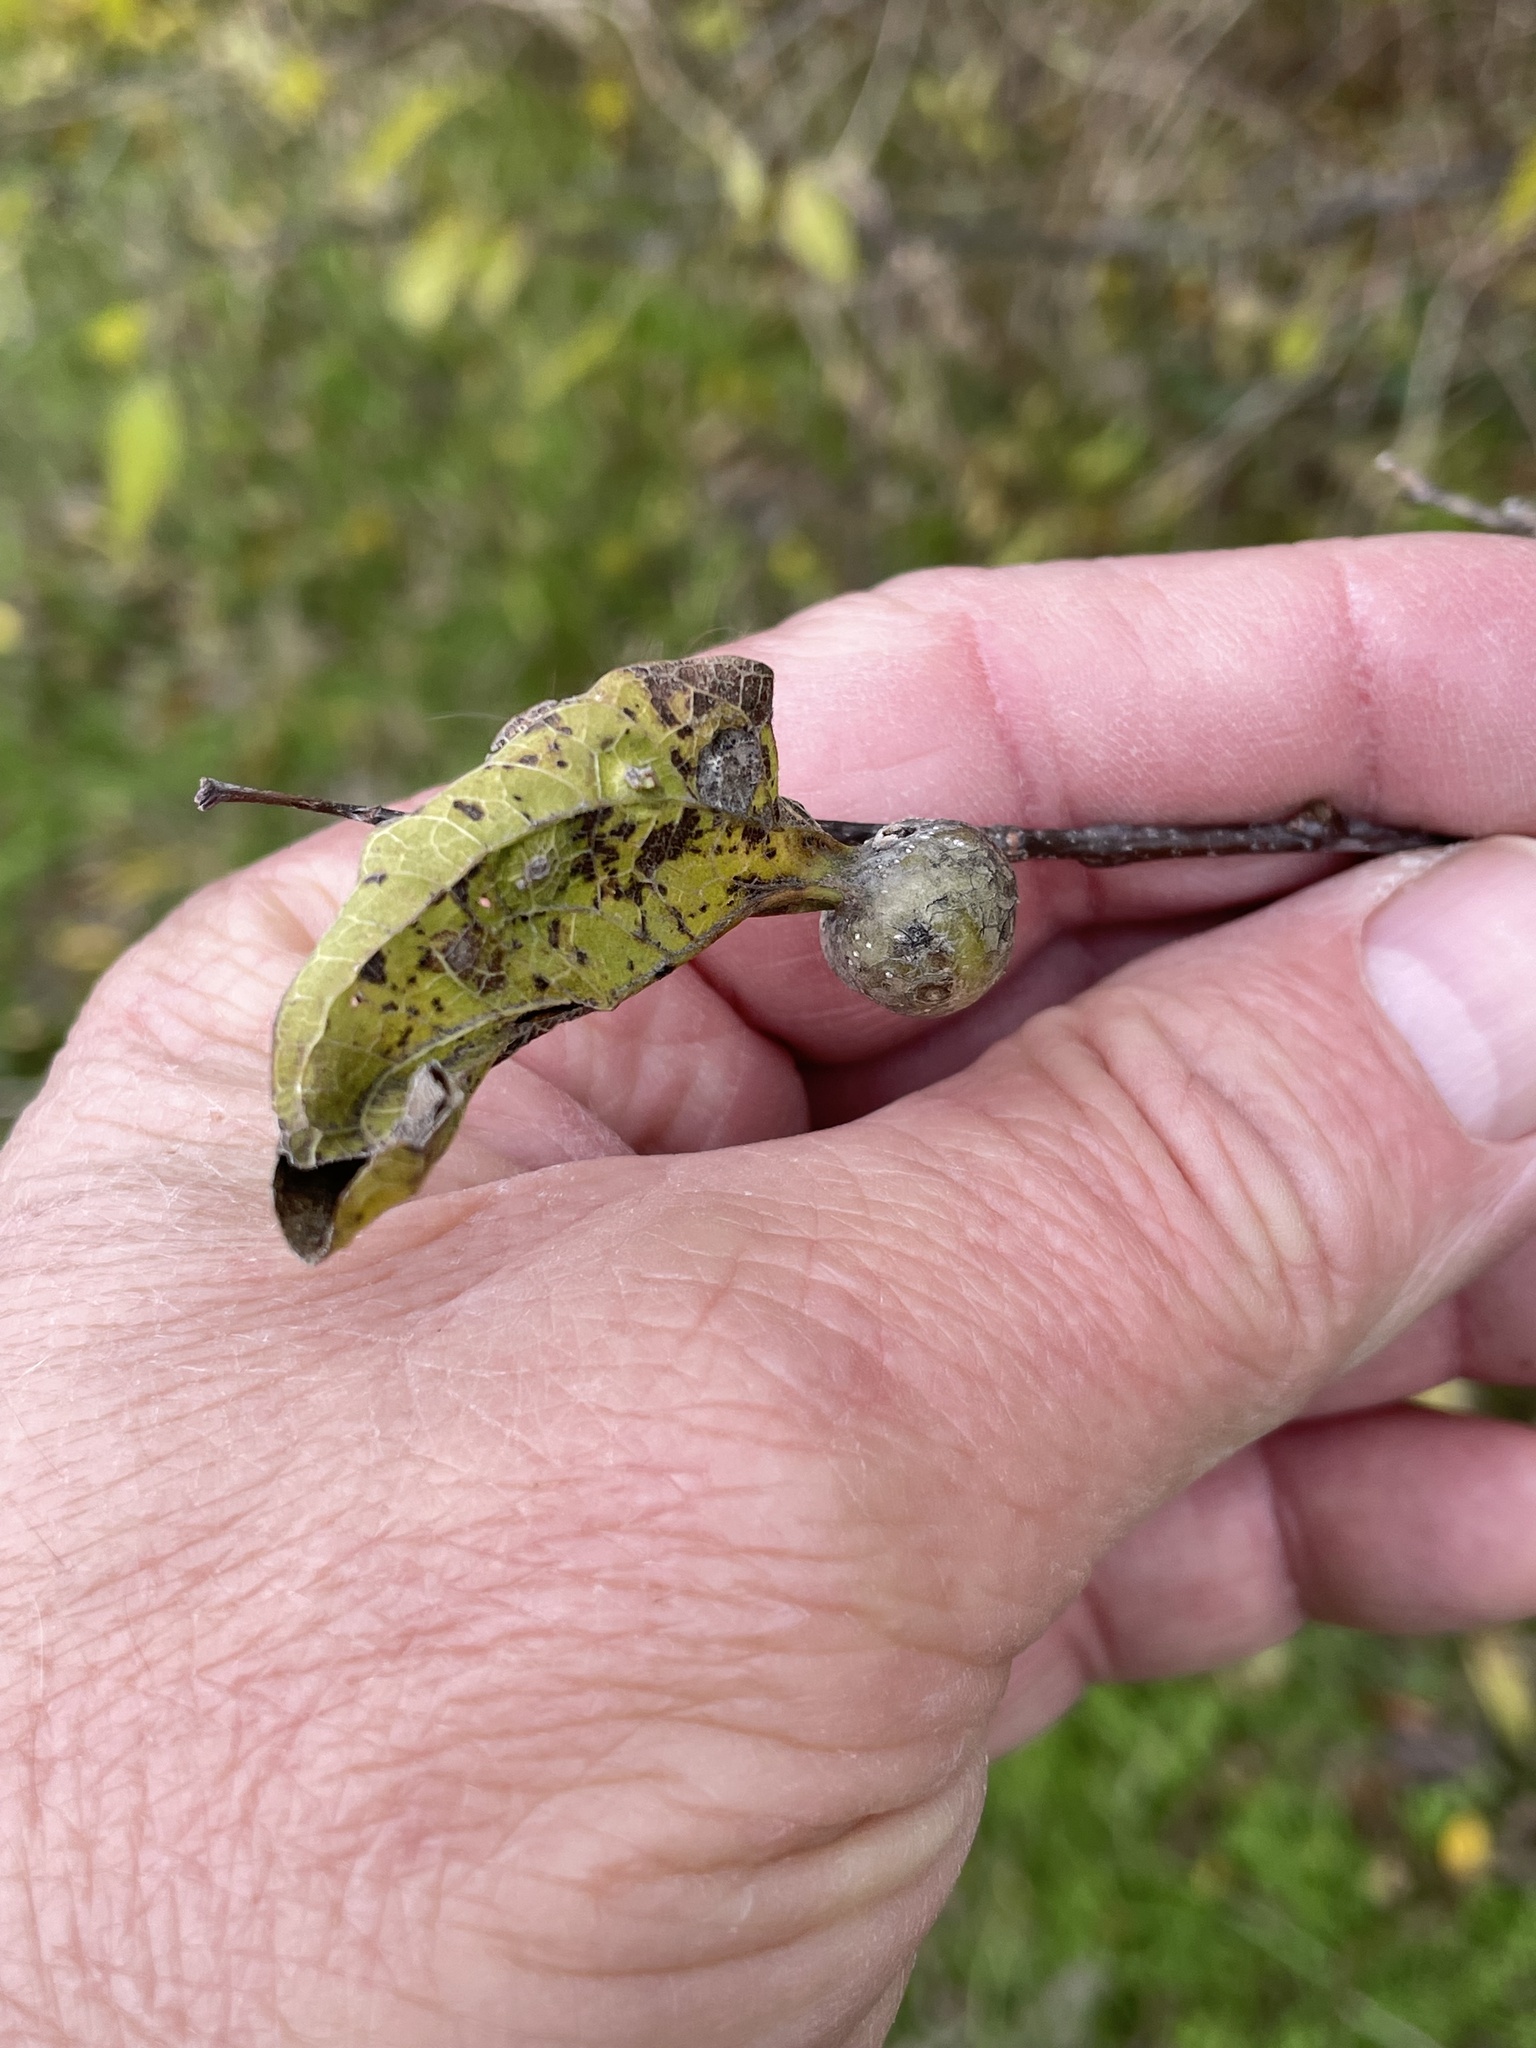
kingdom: Animalia
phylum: Arthropoda
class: Insecta
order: Hemiptera
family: Aphalaridae
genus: Pachypsylla
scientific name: Pachypsylla venusta
